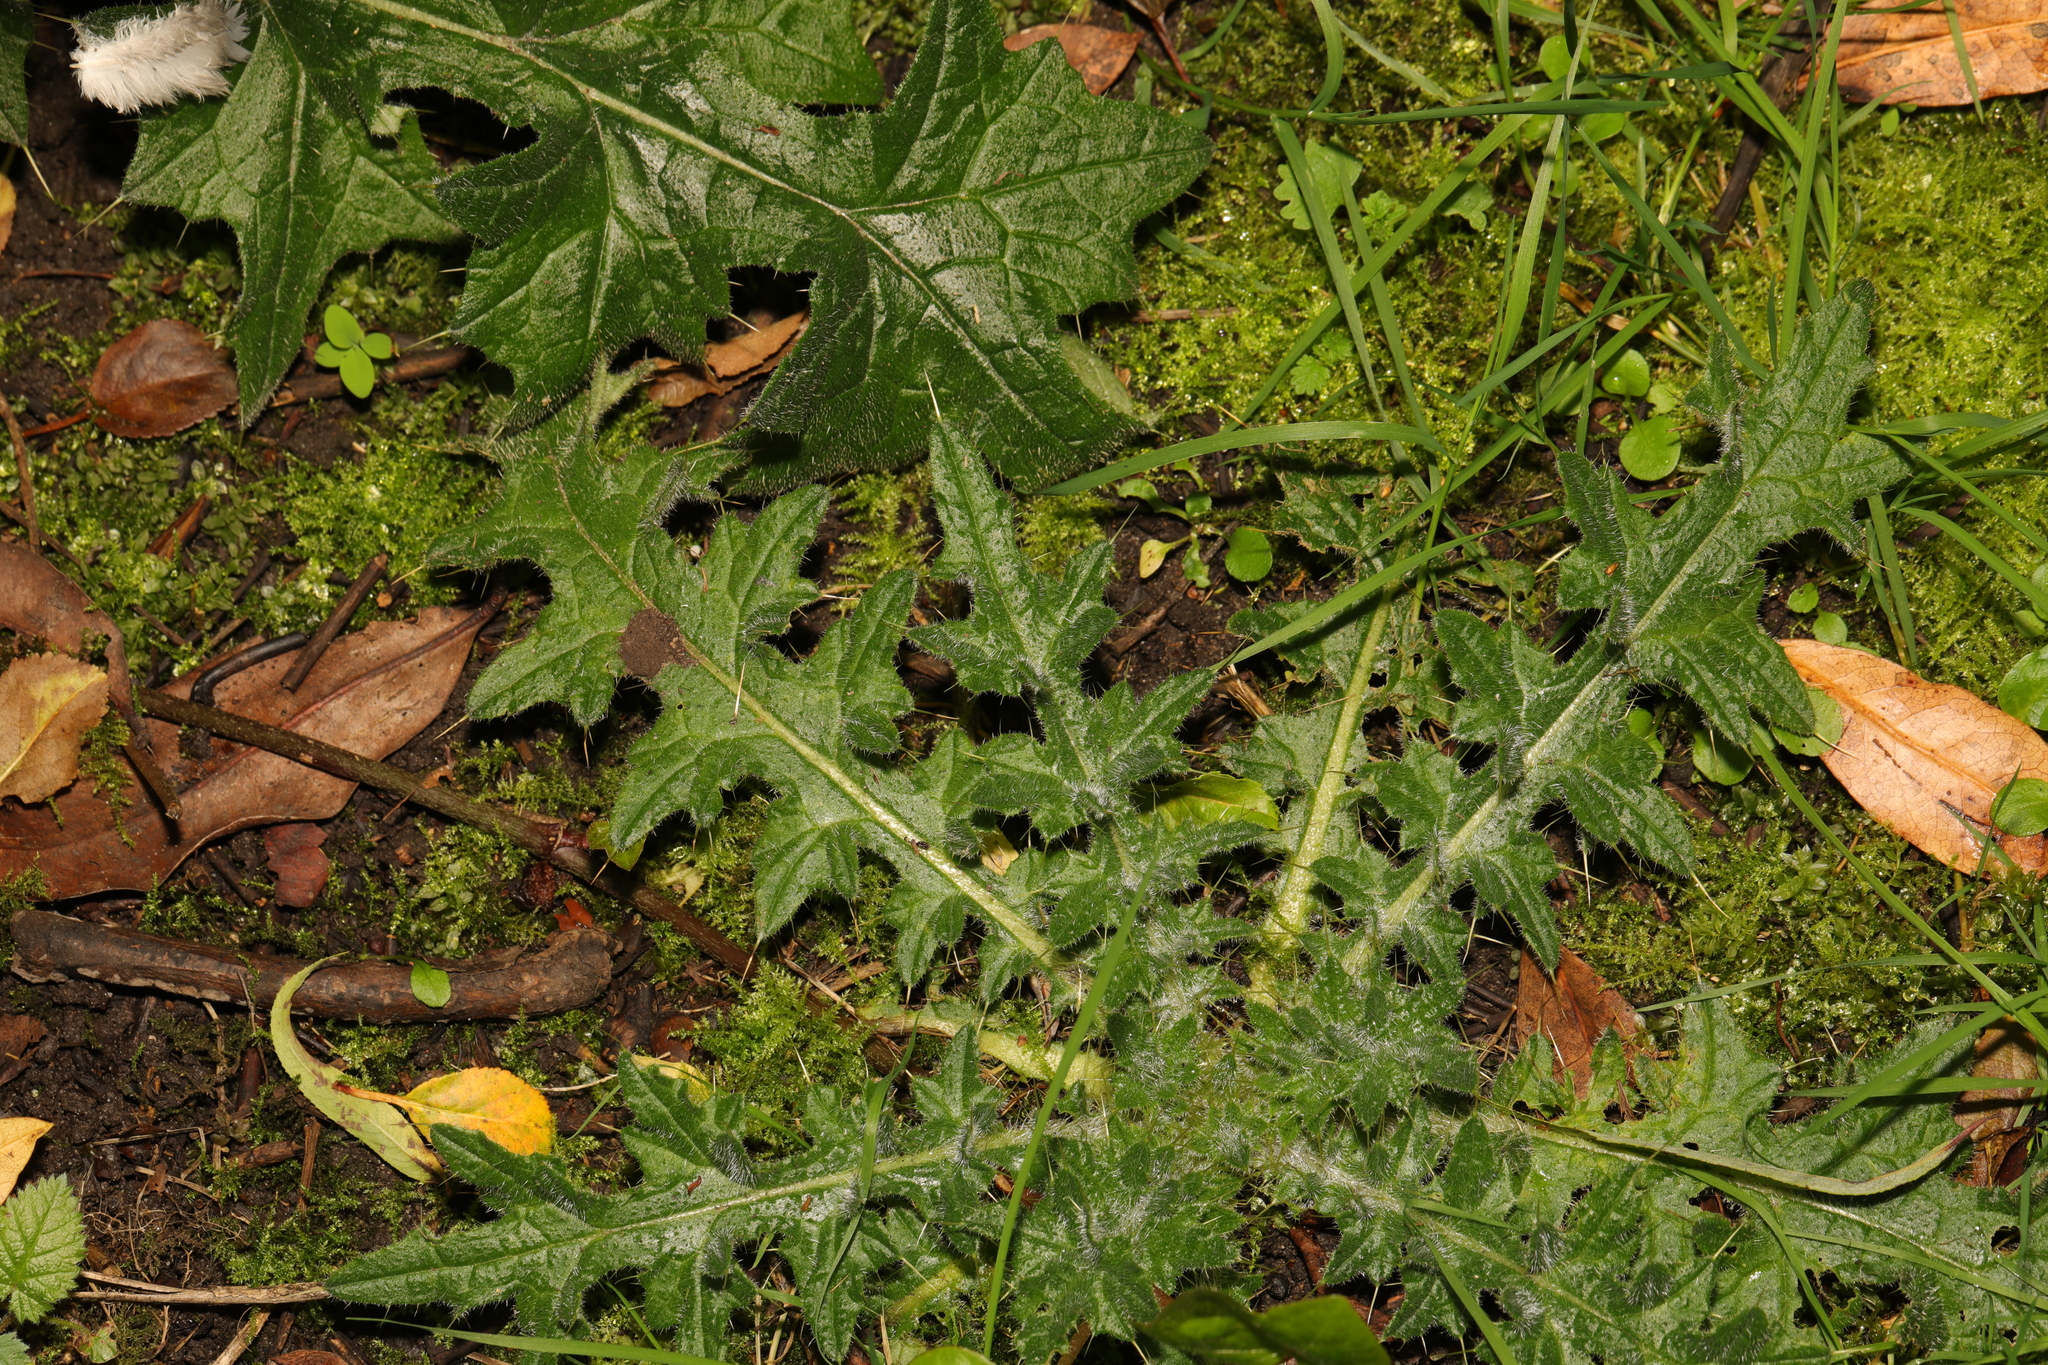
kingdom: Plantae
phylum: Tracheophyta
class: Magnoliopsida
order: Asterales
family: Asteraceae
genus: Cirsium
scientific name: Cirsium vulgare
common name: Bull thistle
